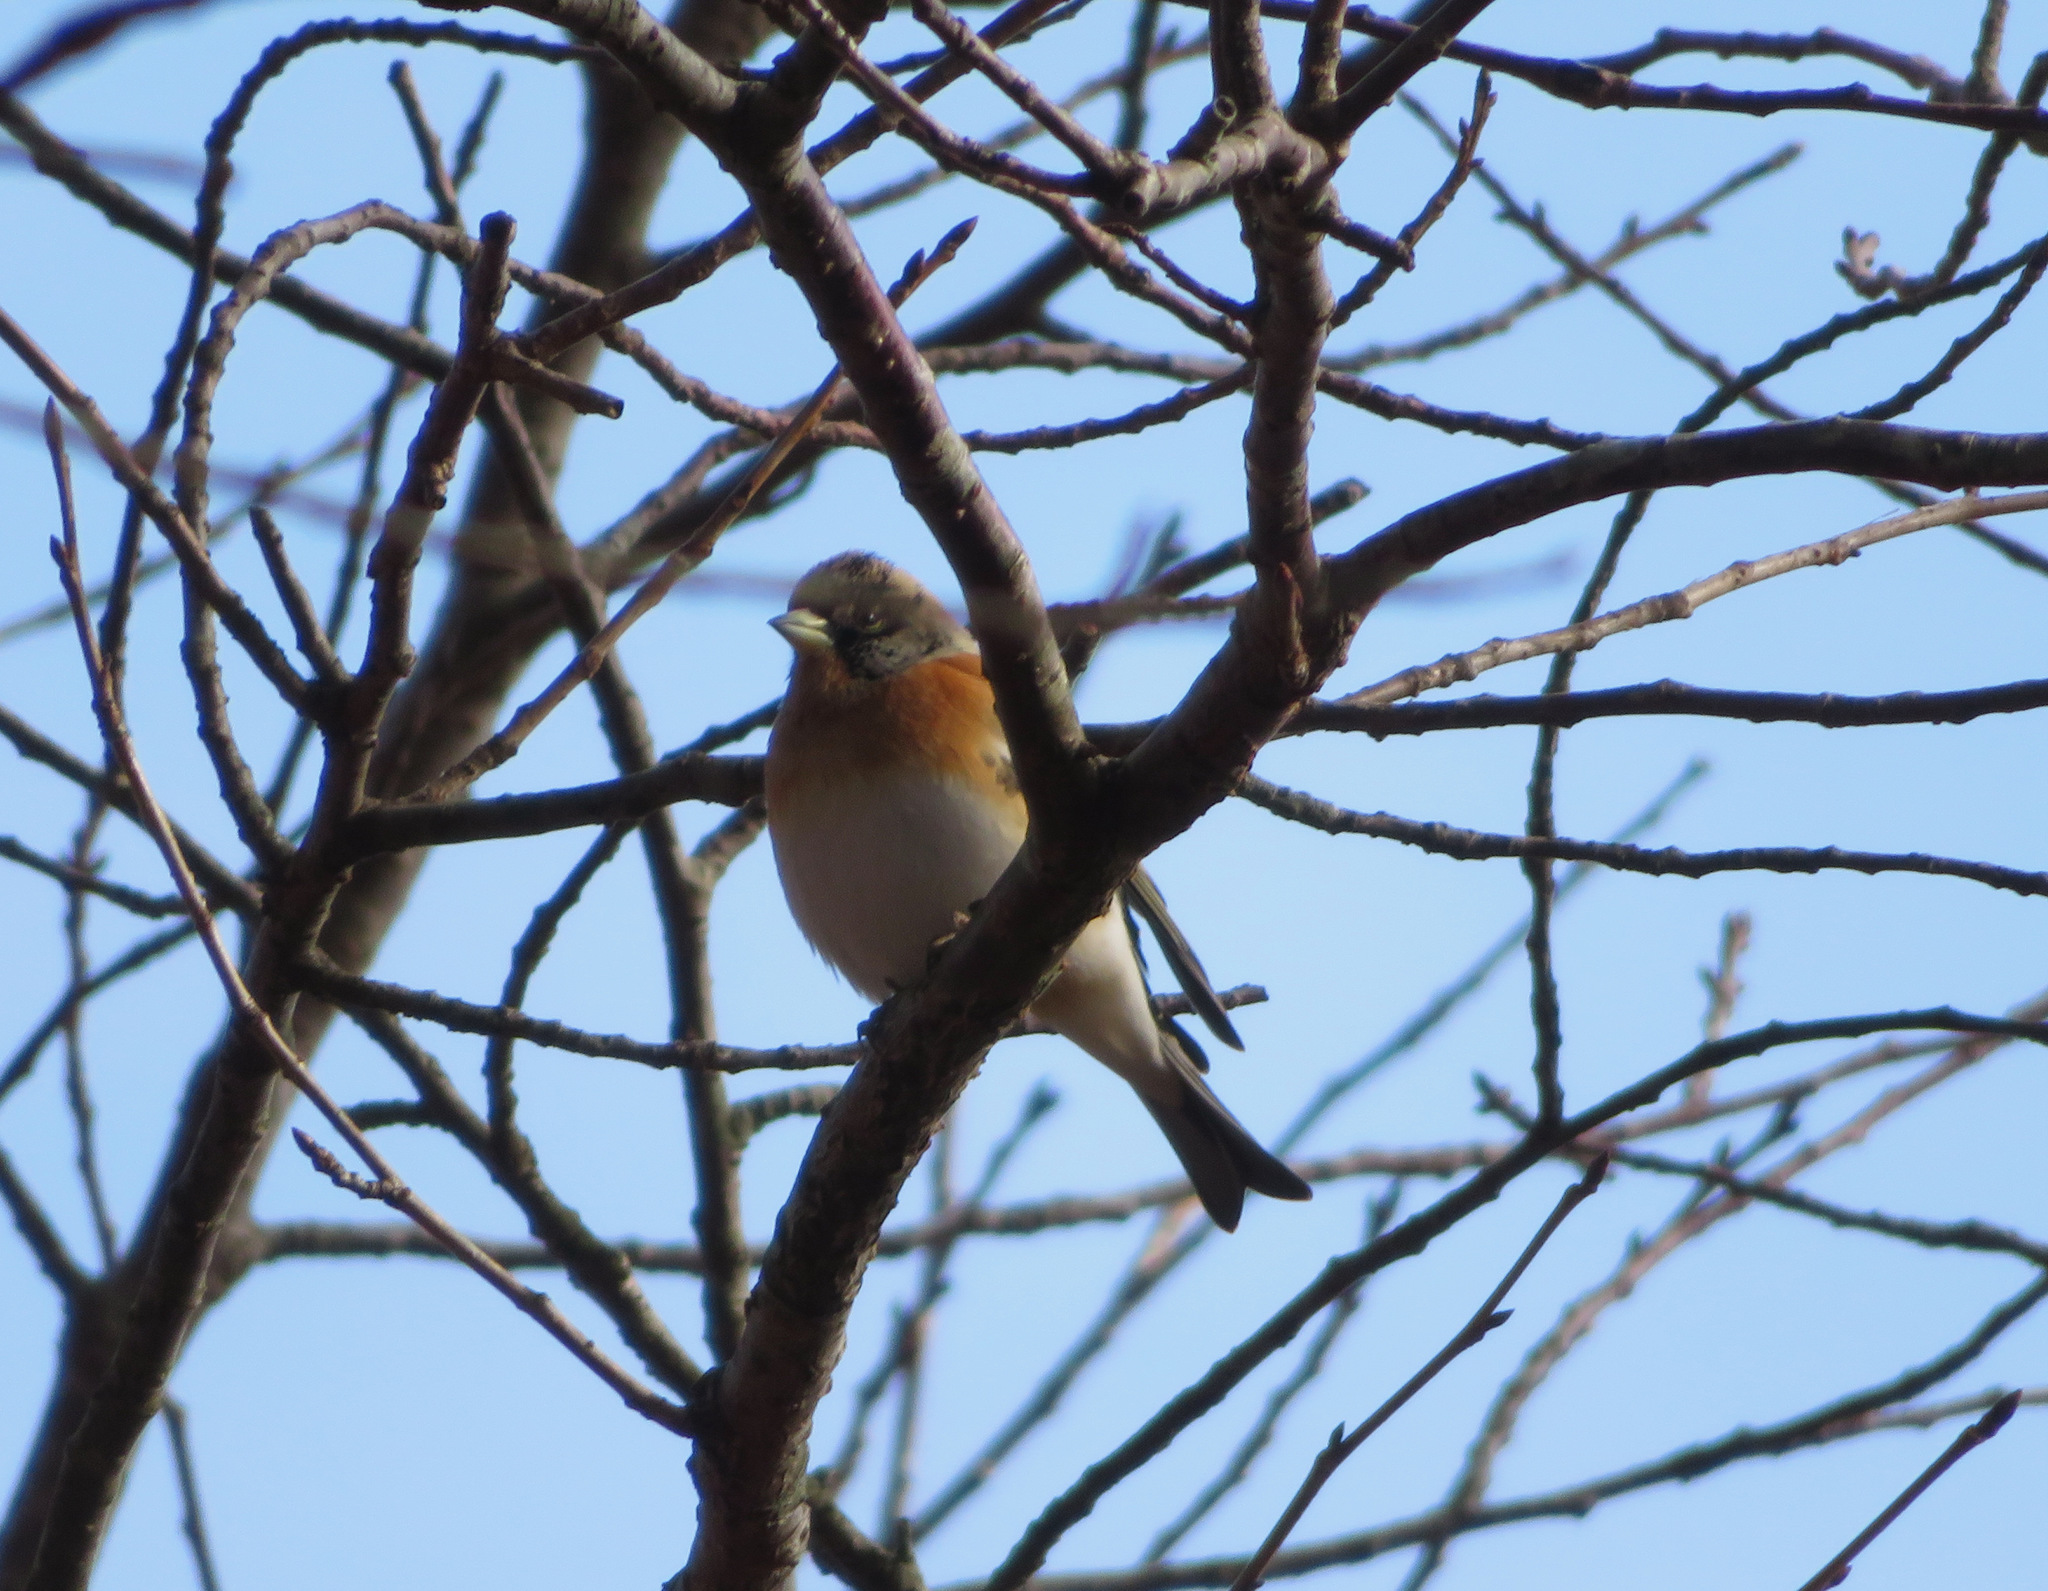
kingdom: Animalia
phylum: Chordata
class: Aves
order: Passeriformes
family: Fringillidae
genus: Fringilla
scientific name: Fringilla montifringilla
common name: Brambling
